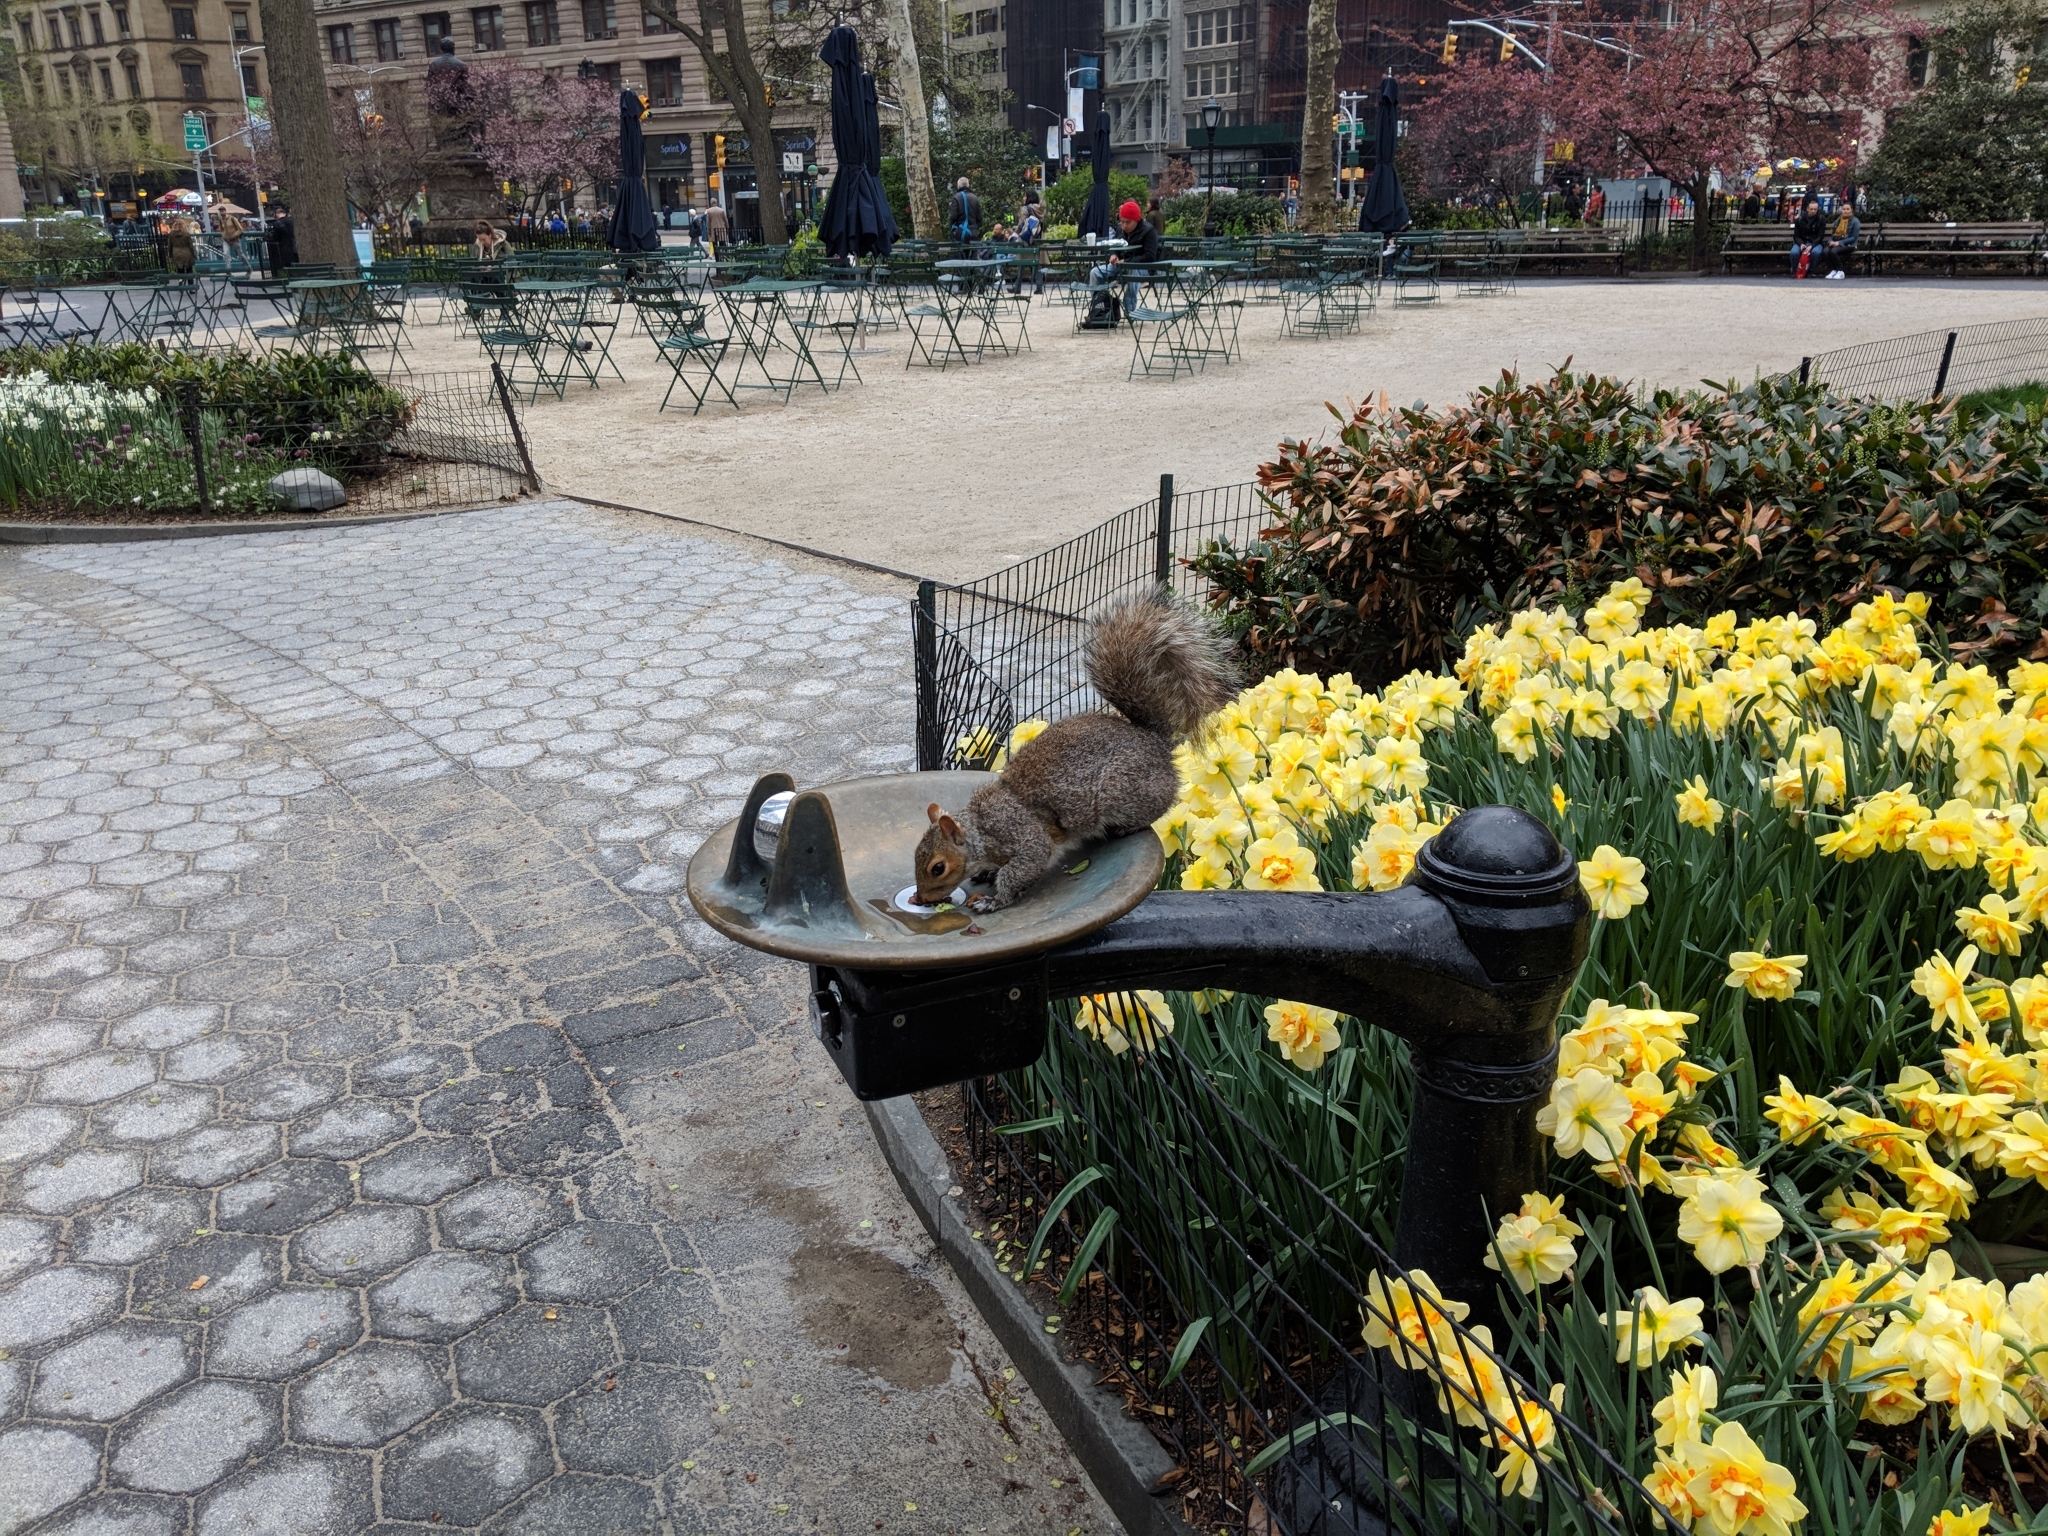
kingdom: Animalia
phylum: Chordata
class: Mammalia
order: Rodentia
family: Sciuridae
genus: Sciurus
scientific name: Sciurus carolinensis
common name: Eastern gray squirrel
